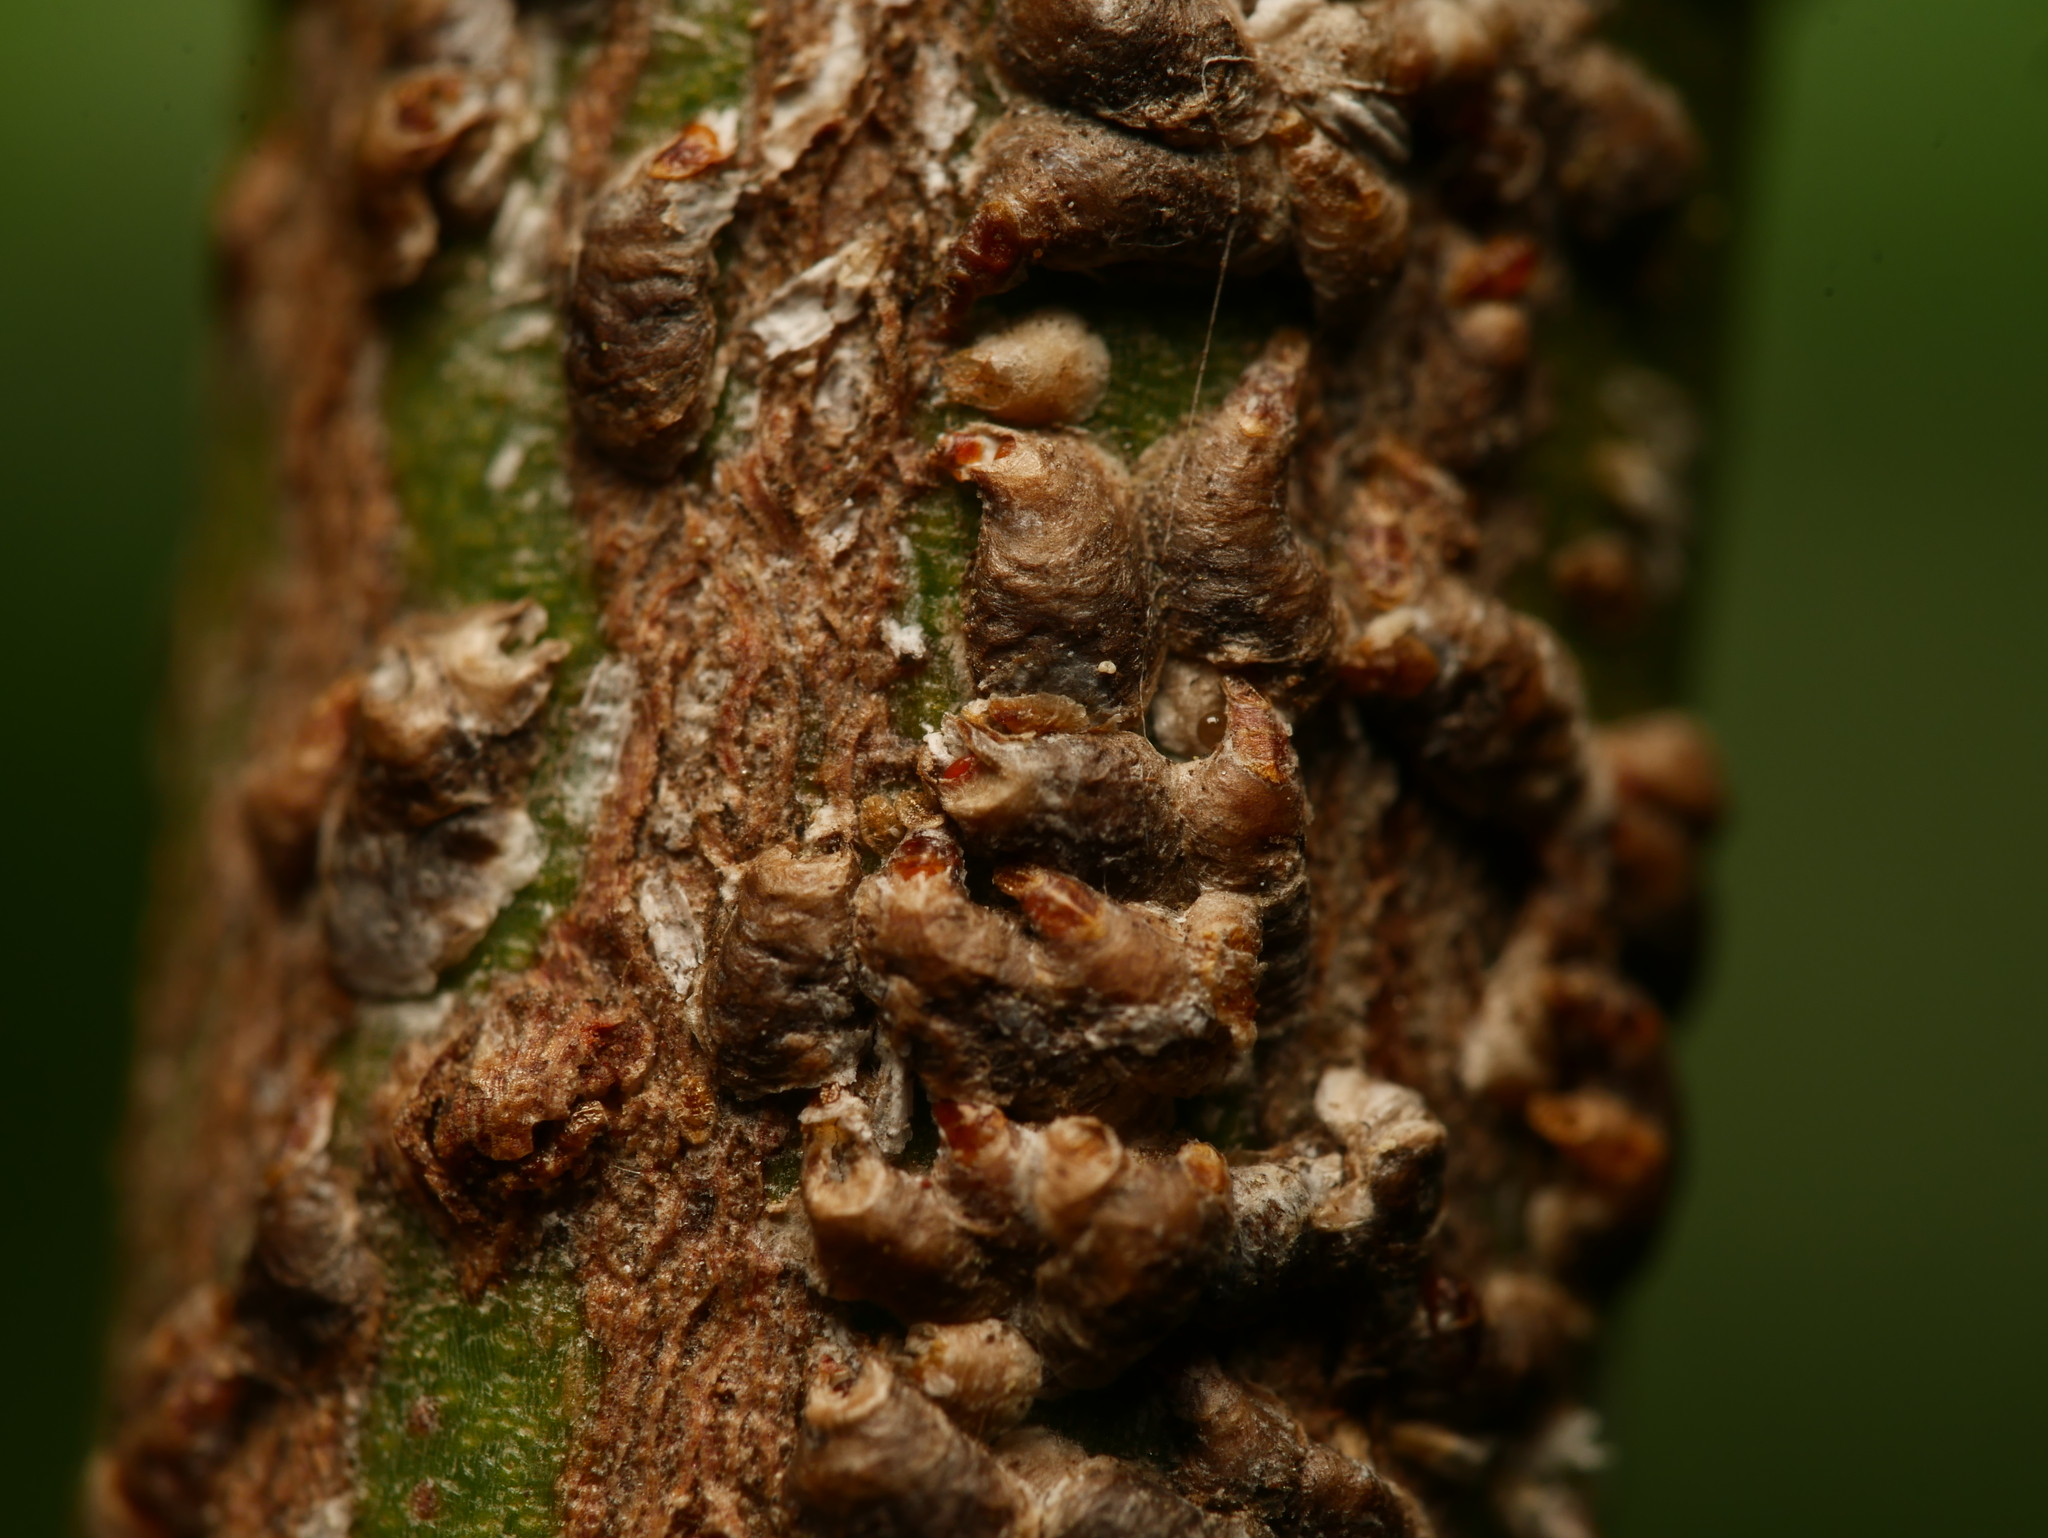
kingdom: Animalia
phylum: Arthropoda
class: Insecta
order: Hemiptera
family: Diaspididae
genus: Unaspis
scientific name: Unaspis euonymi
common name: Euonymus scale
